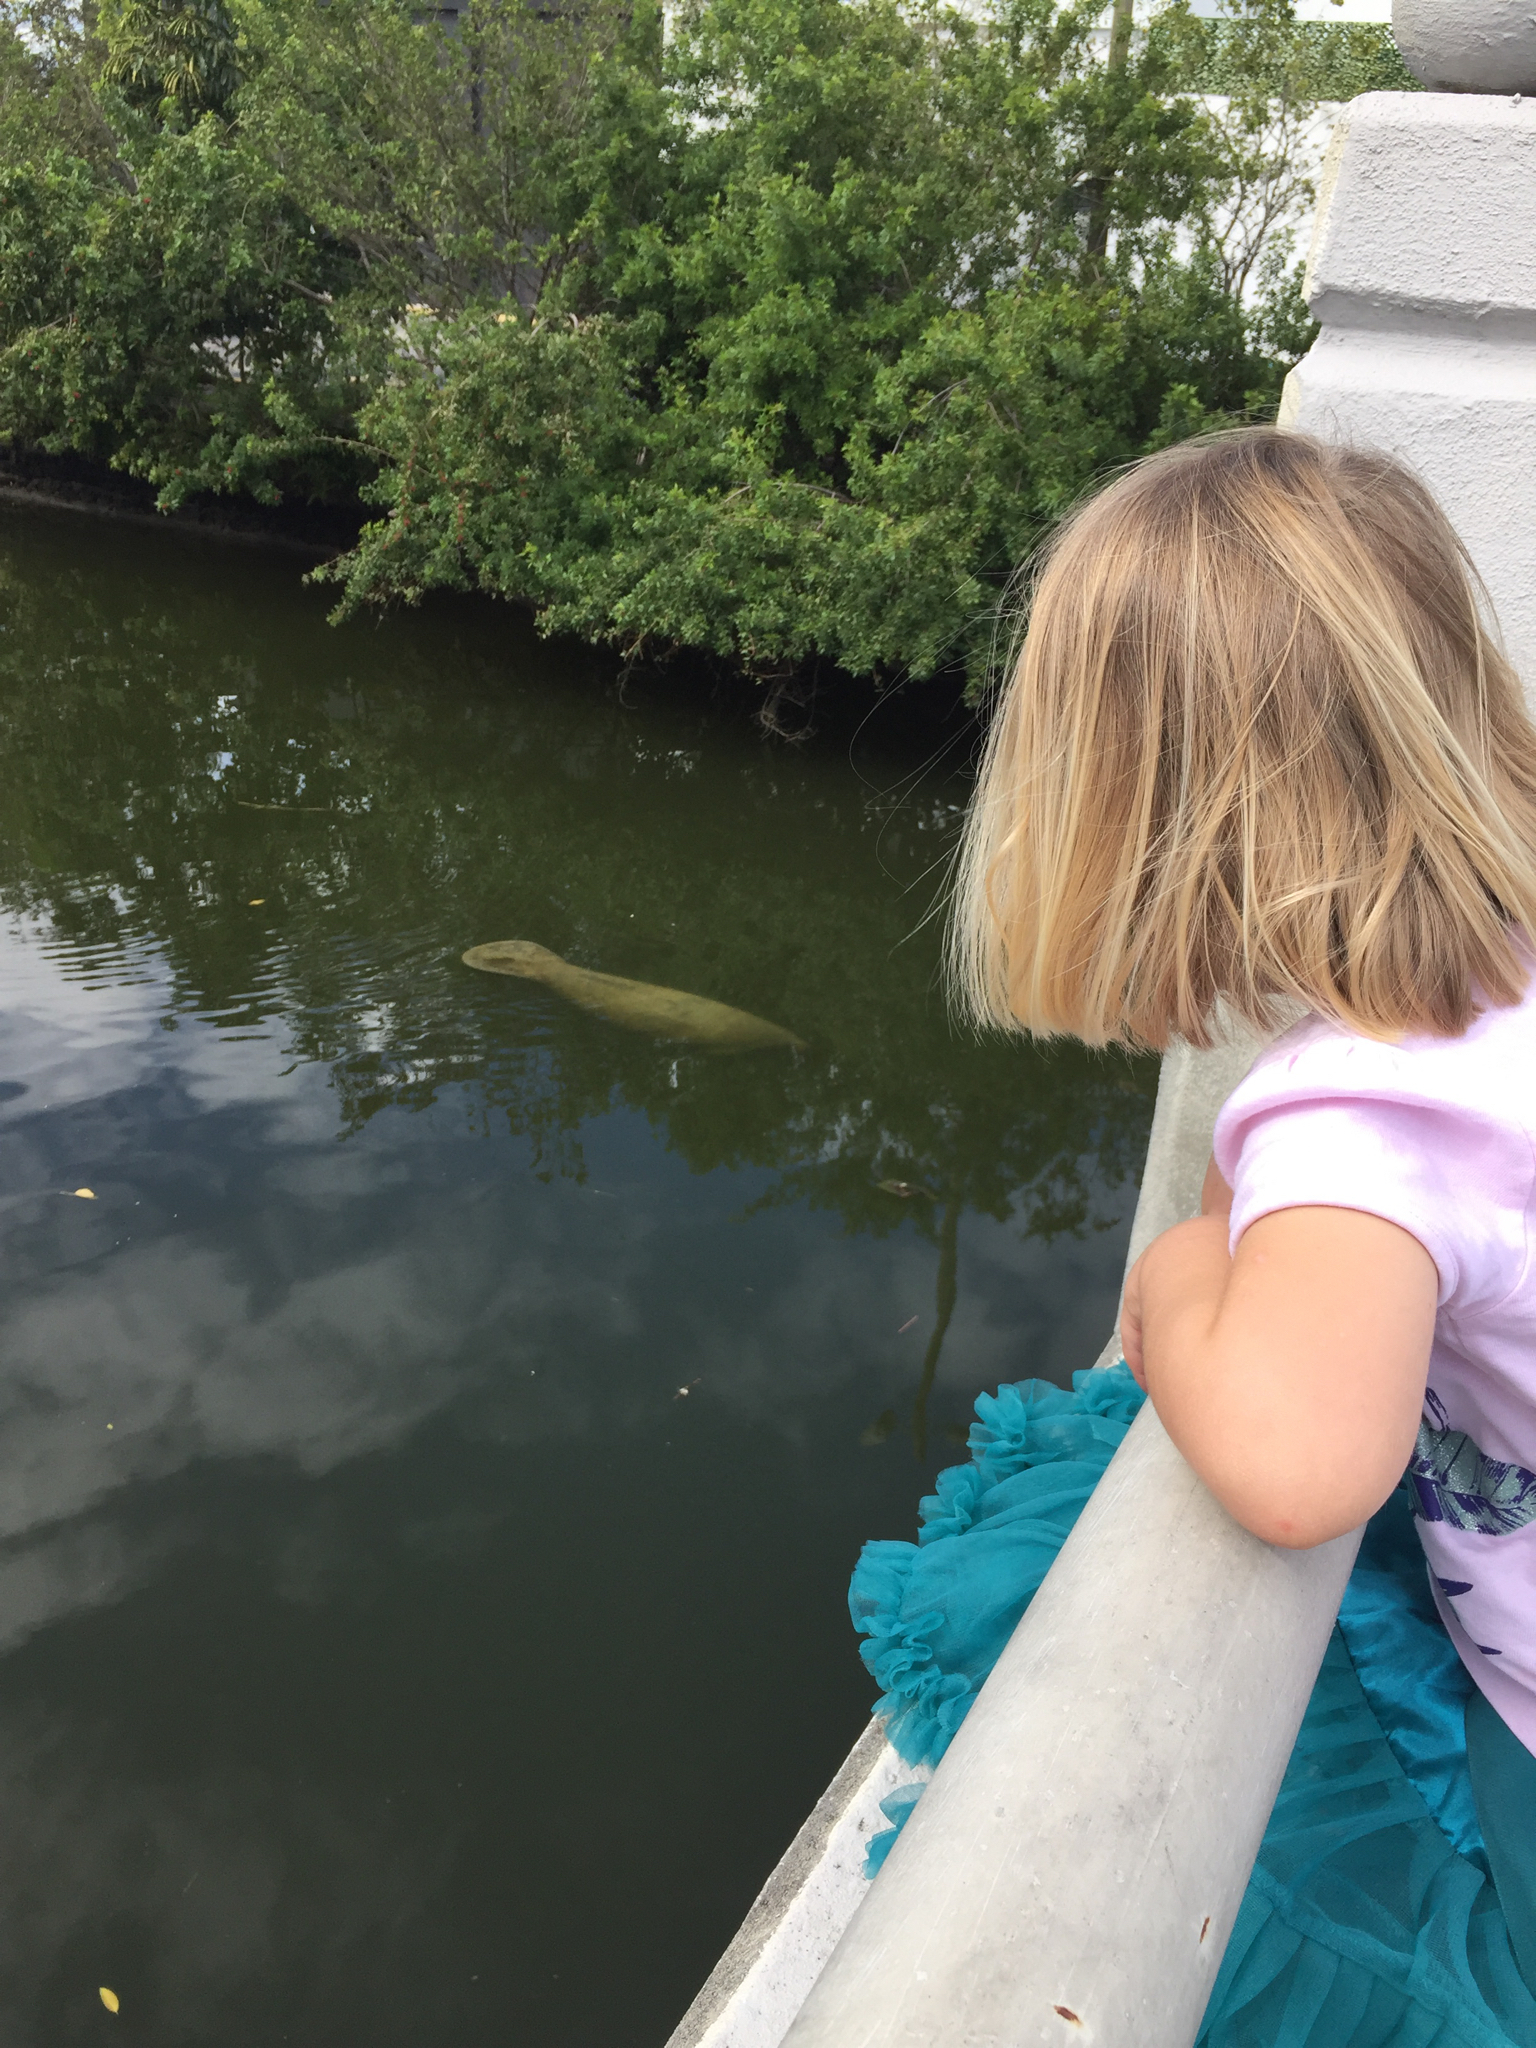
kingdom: Animalia
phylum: Chordata
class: Mammalia
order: Sirenia
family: Trichechidae
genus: Trichechus
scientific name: Trichechus manatus
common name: West indian manatee
